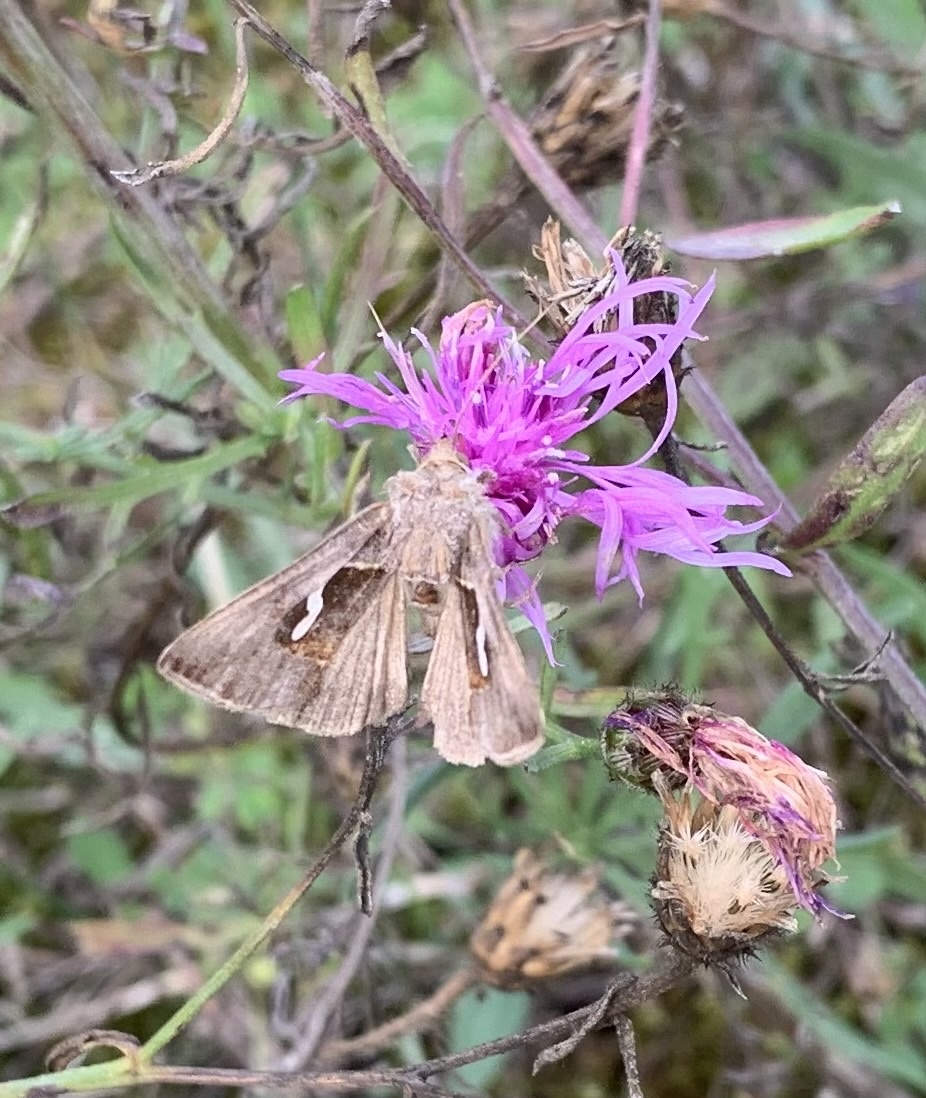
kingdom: Animalia
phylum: Arthropoda
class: Insecta
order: Lepidoptera
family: Noctuidae
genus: Macdunnoughia
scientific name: Macdunnoughia confusa
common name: Dewick's plusia
